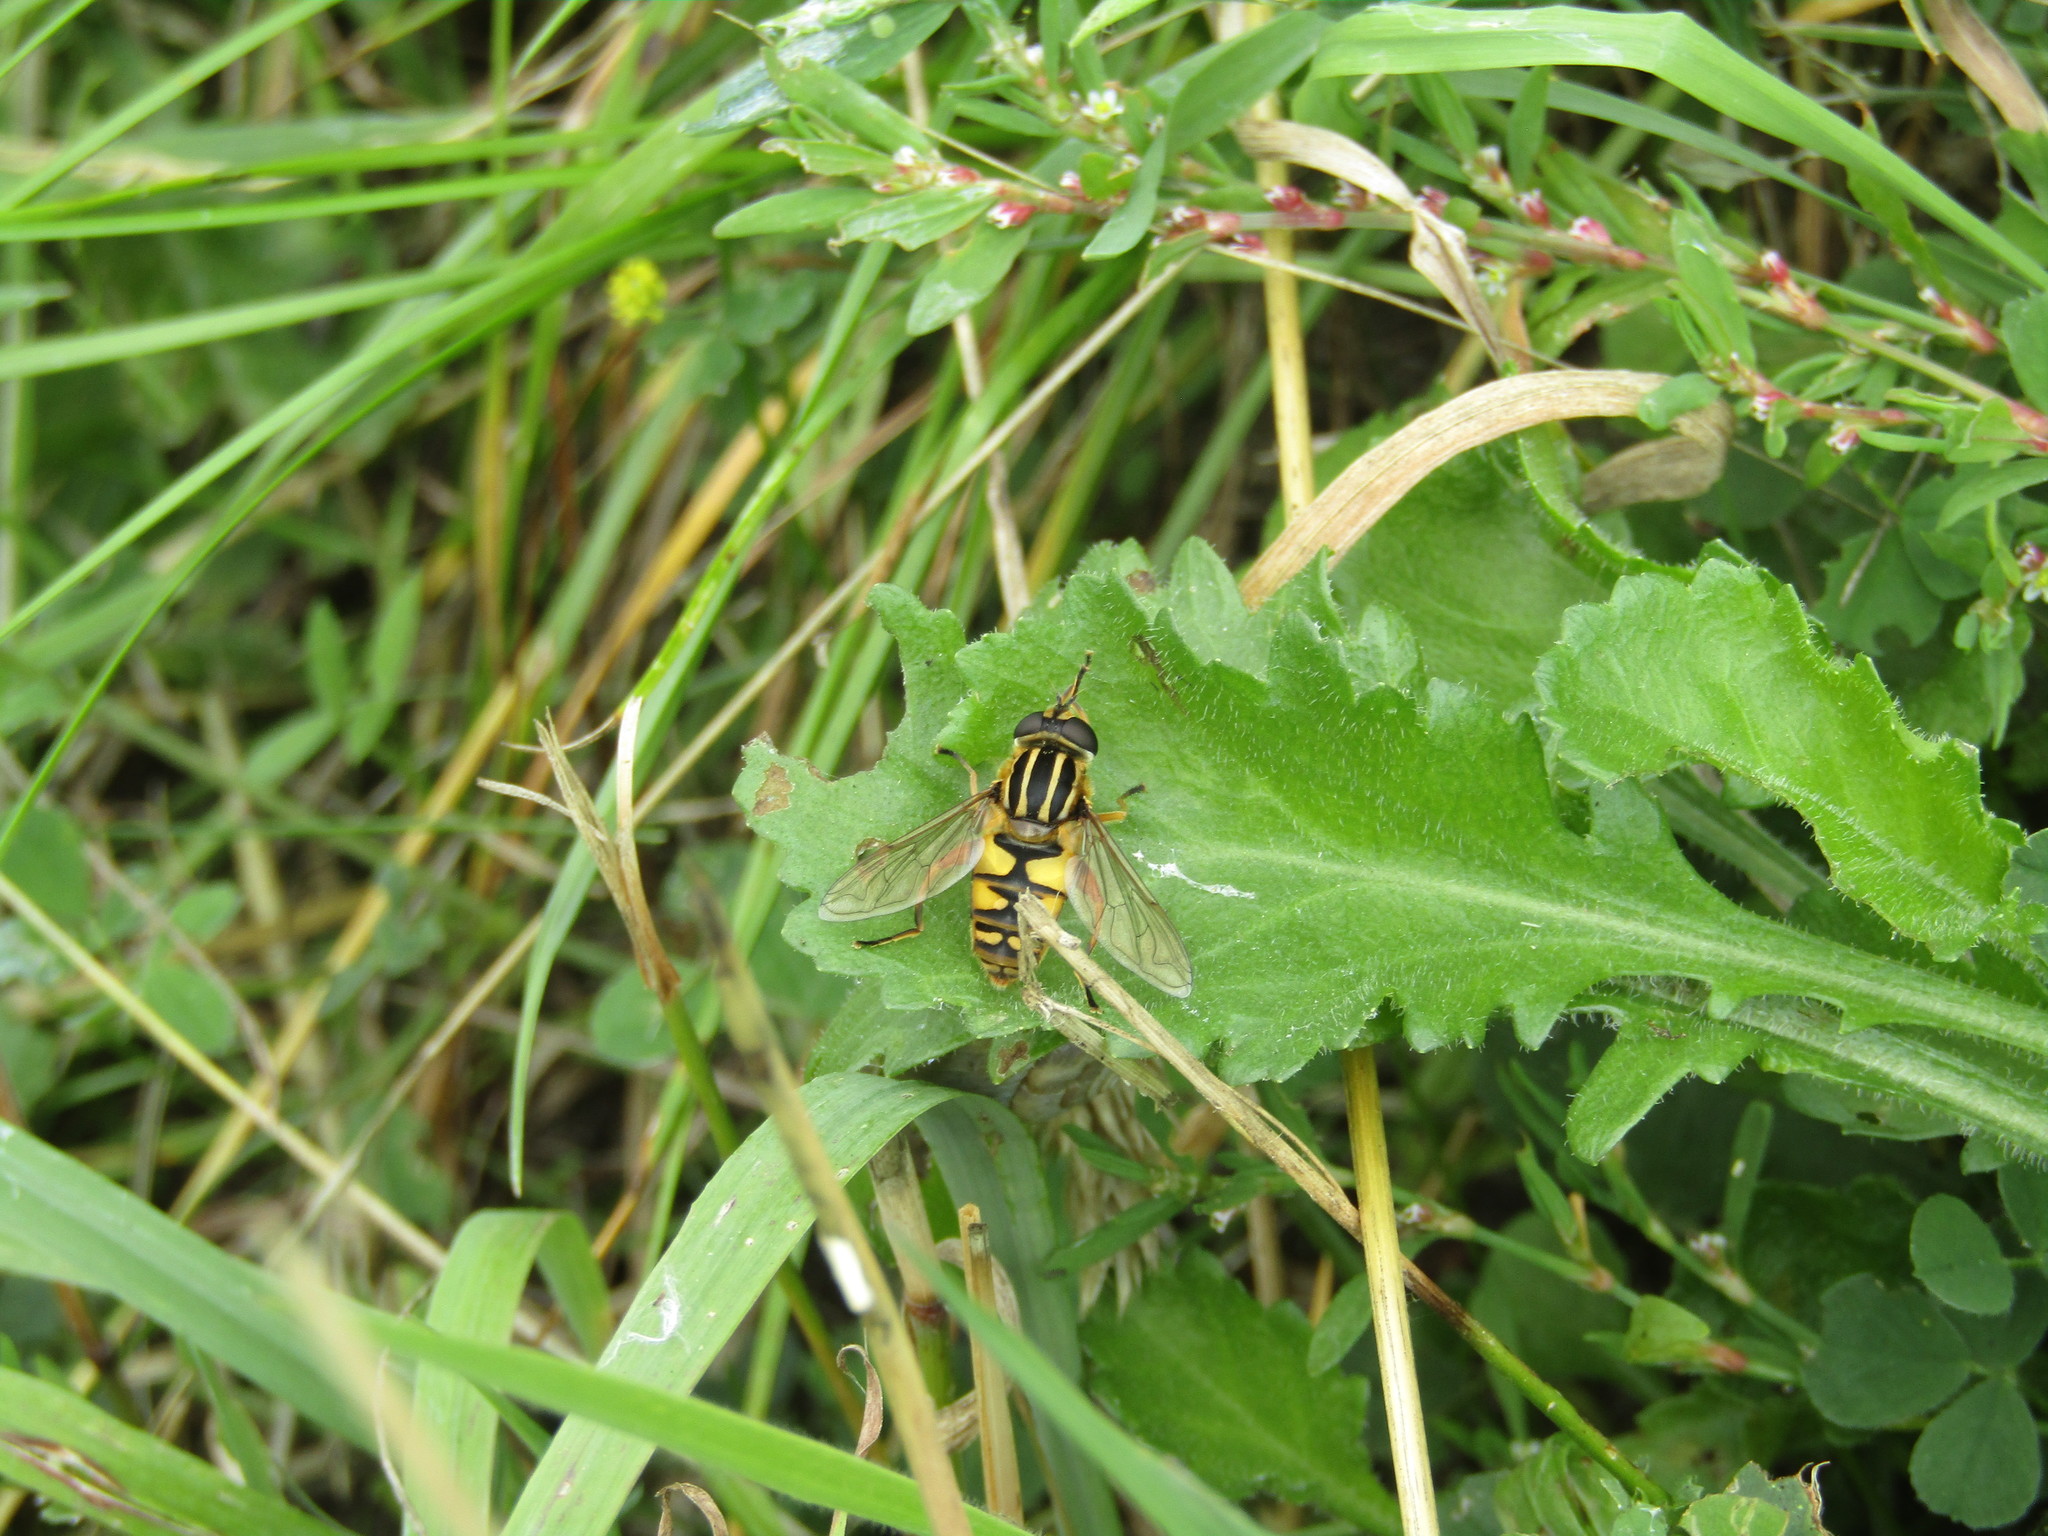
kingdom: Animalia
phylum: Arthropoda
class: Insecta
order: Diptera
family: Syrphidae
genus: Helophilus
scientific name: Helophilus pendulus
